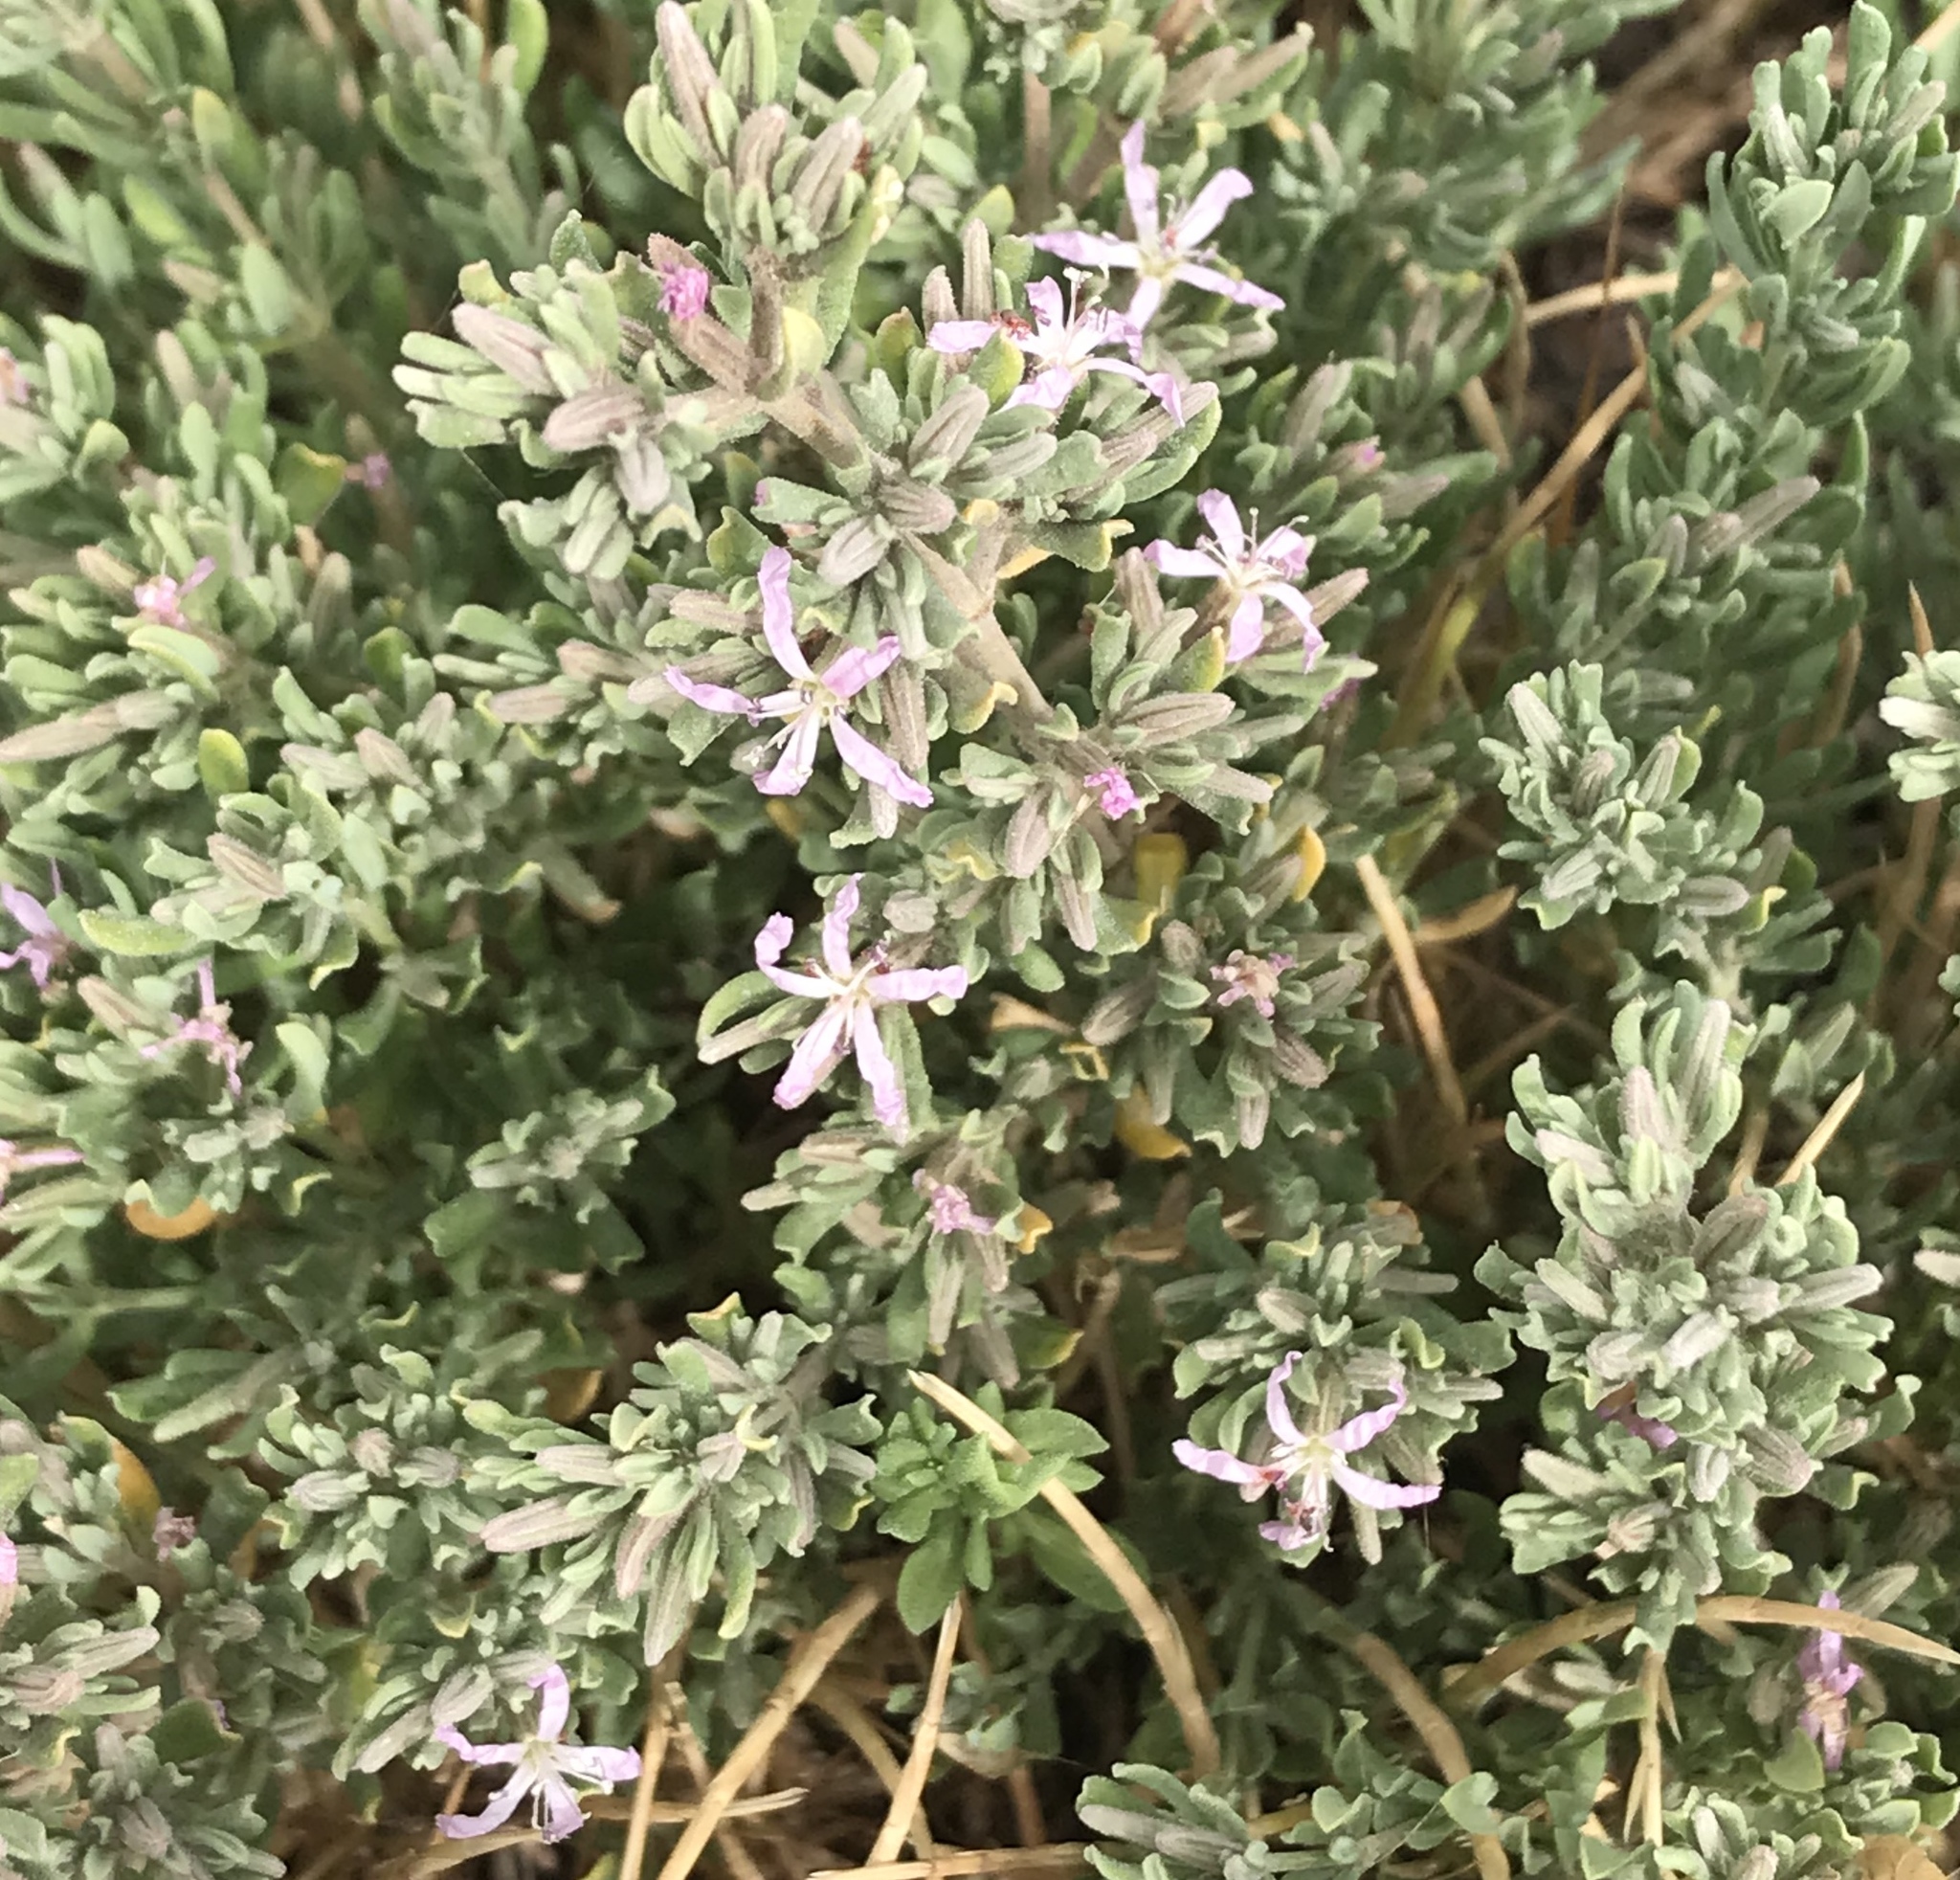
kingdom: Plantae
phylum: Tracheophyta
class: Magnoliopsida
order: Caryophyllales
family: Frankeniaceae
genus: Frankenia
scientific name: Frankenia salina
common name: Alkali seaheath
